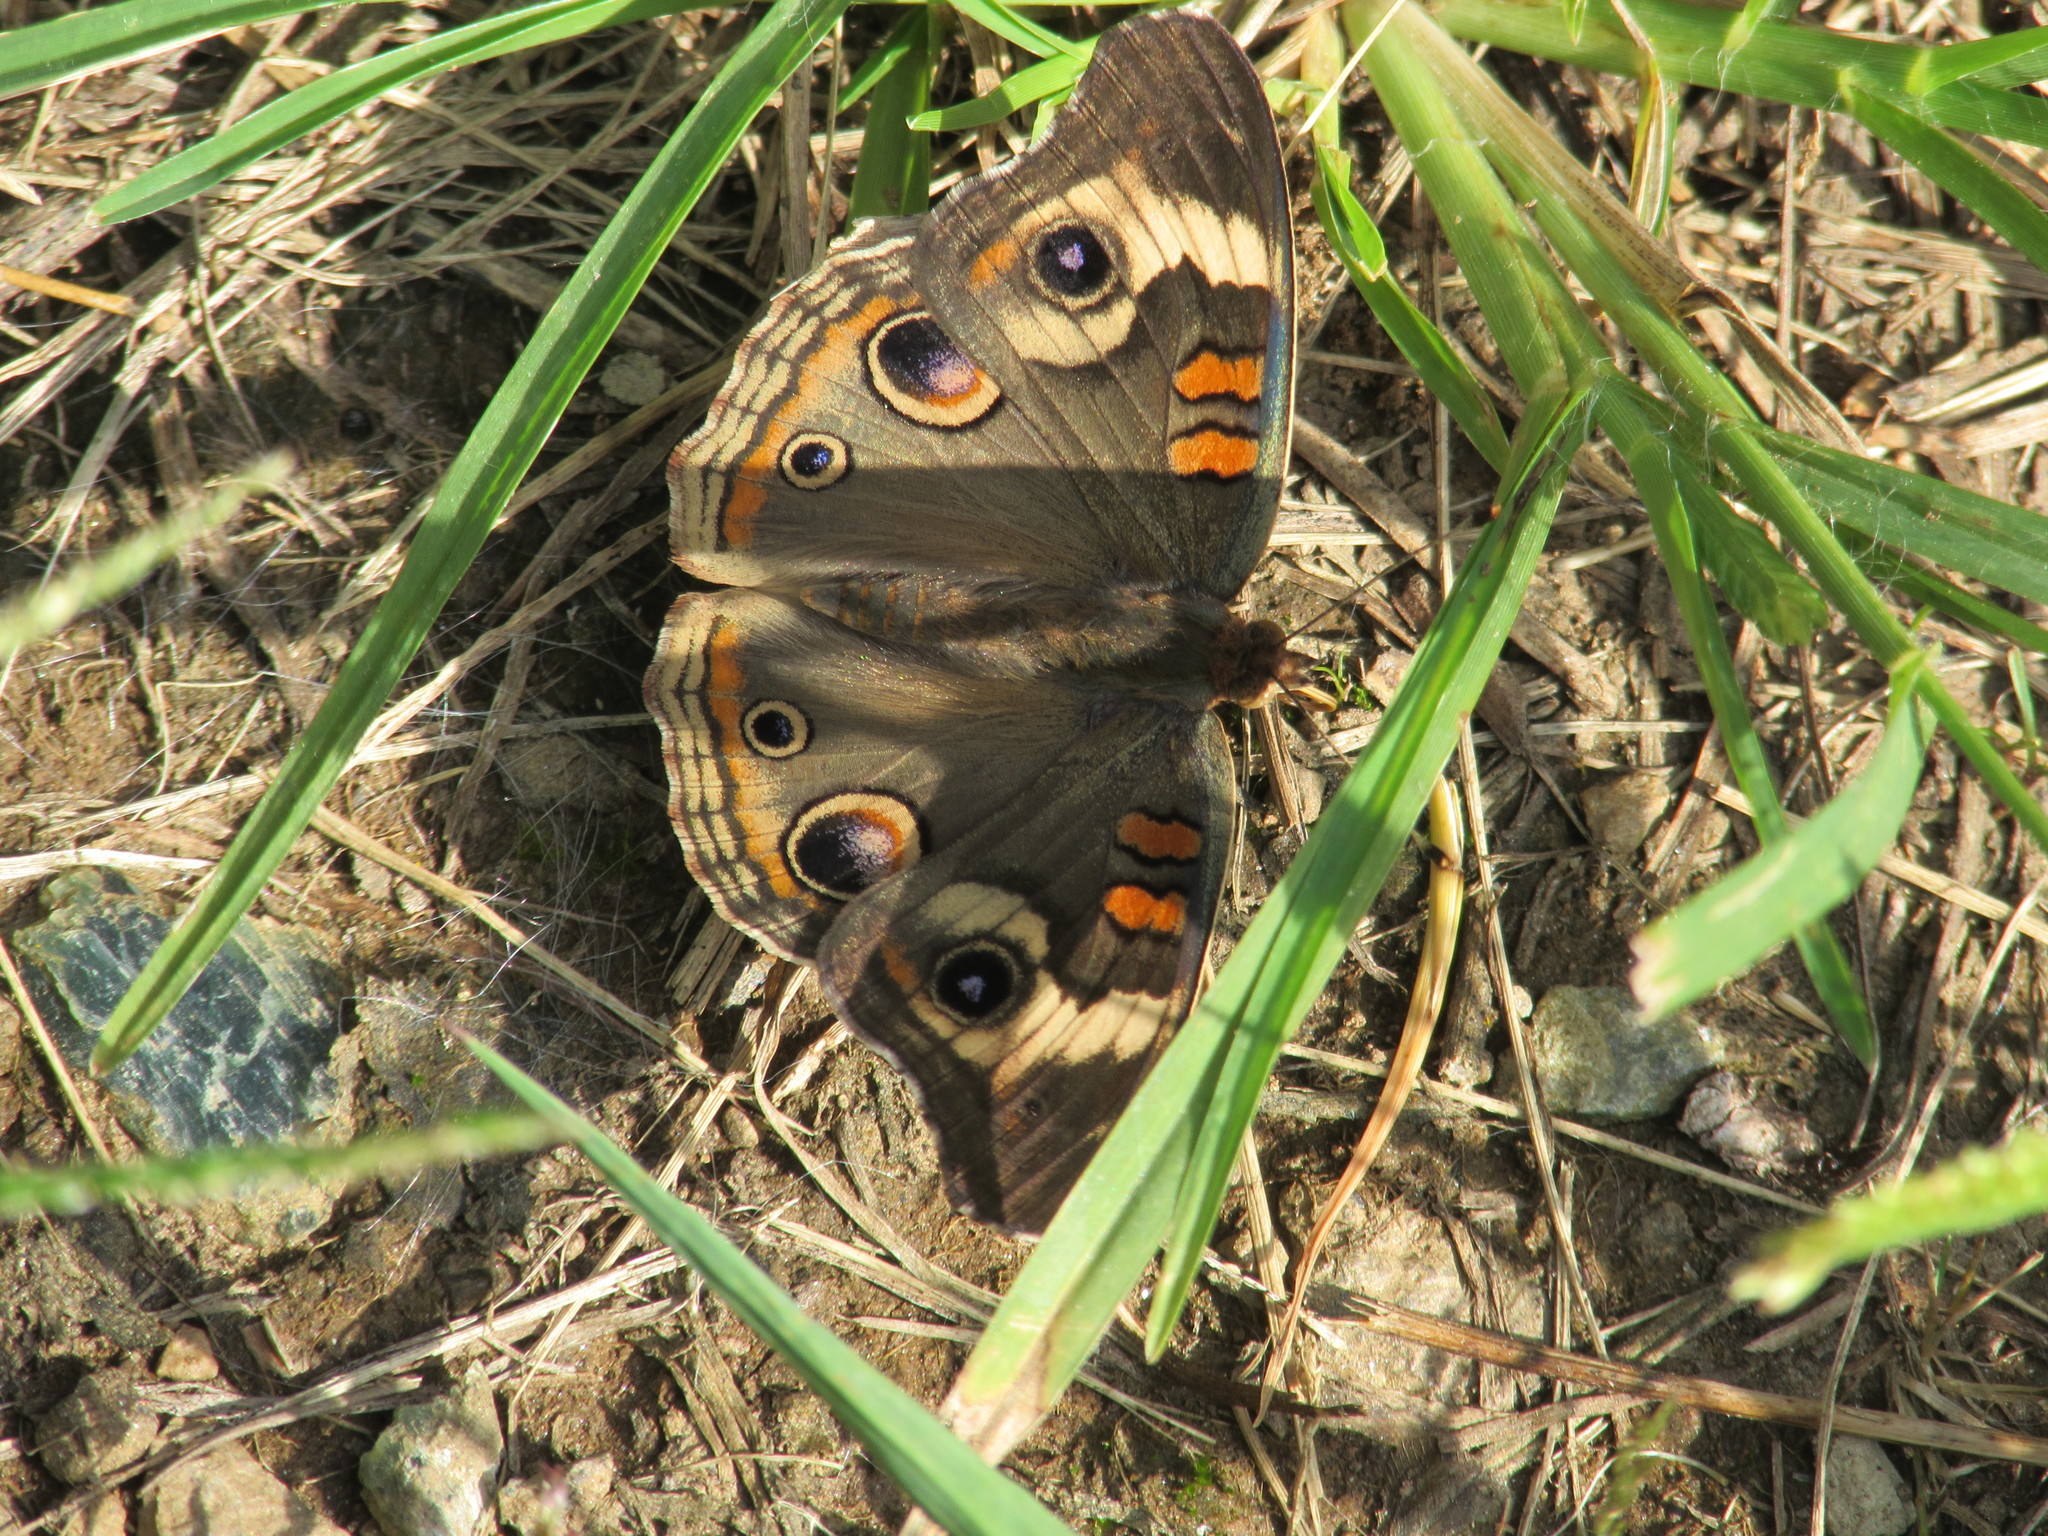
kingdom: Animalia
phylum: Arthropoda
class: Insecta
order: Lepidoptera
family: Nymphalidae
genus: Junonia
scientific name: Junonia coenia
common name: Common buckeye
